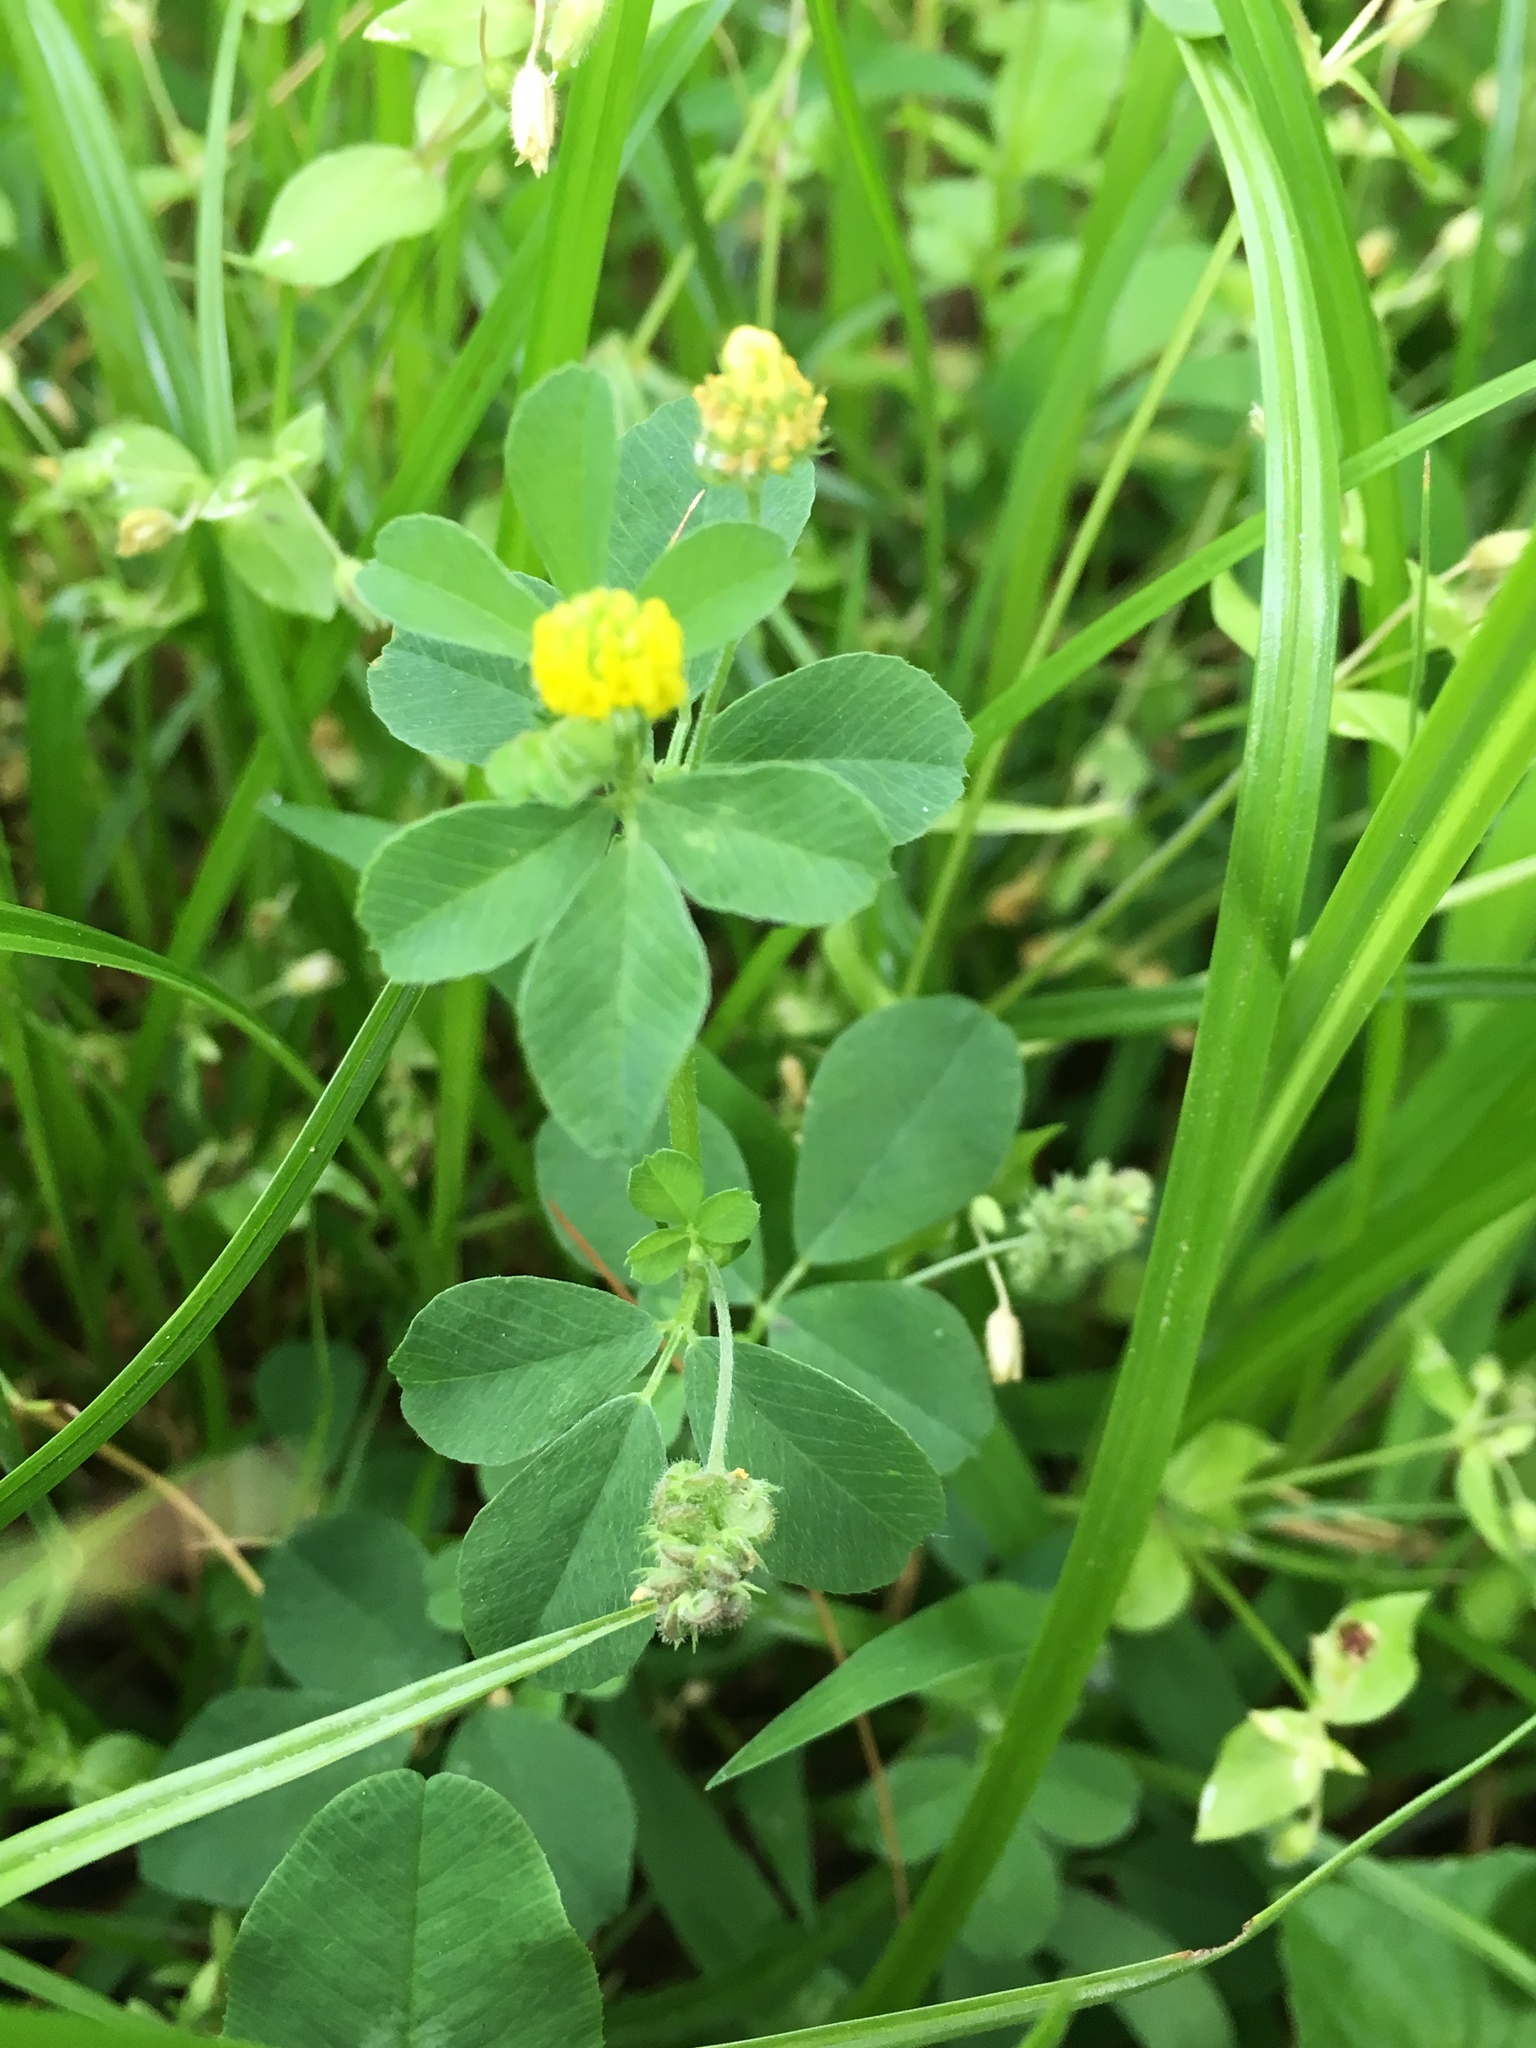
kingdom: Plantae
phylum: Tracheophyta
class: Magnoliopsida
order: Fabales
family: Fabaceae
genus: Medicago
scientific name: Medicago lupulina
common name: Black medick
